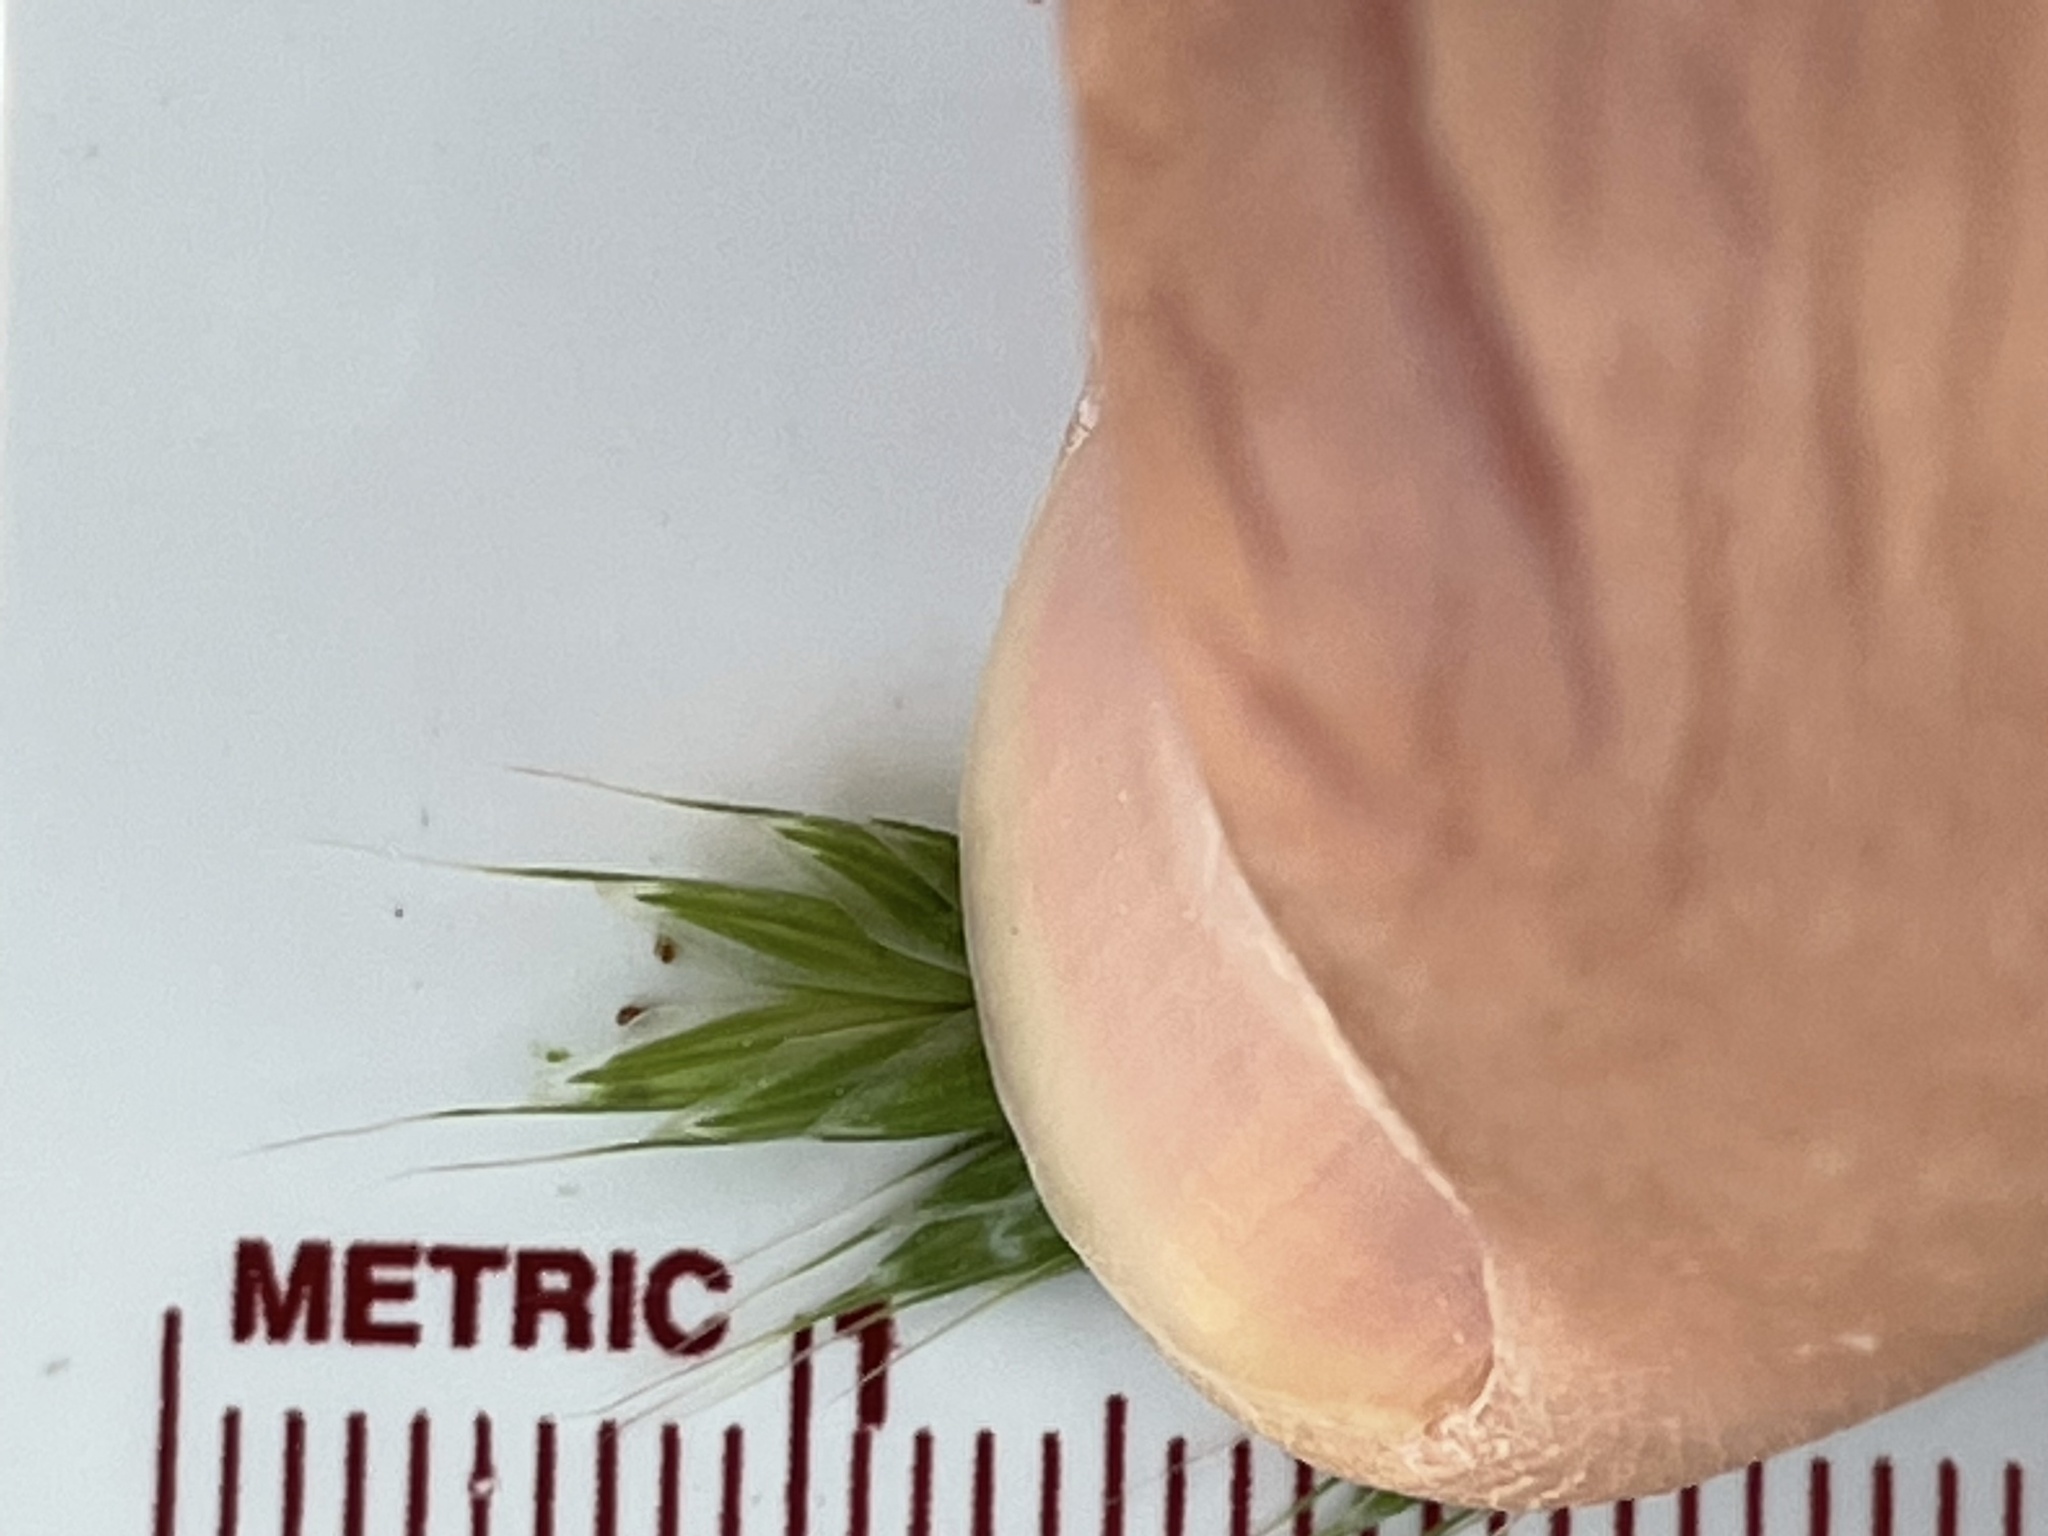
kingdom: Plantae
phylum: Tracheophyta
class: Liliopsida
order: Poales
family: Poaceae
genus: Bromus
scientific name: Bromus hordeaceus
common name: Soft brome
